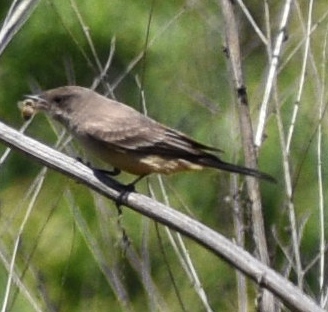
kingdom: Animalia
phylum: Chordata
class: Aves
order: Passeriformes
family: Tyrannidae
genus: Sayornis
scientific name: Sayornis saya
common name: Say's phoebe
